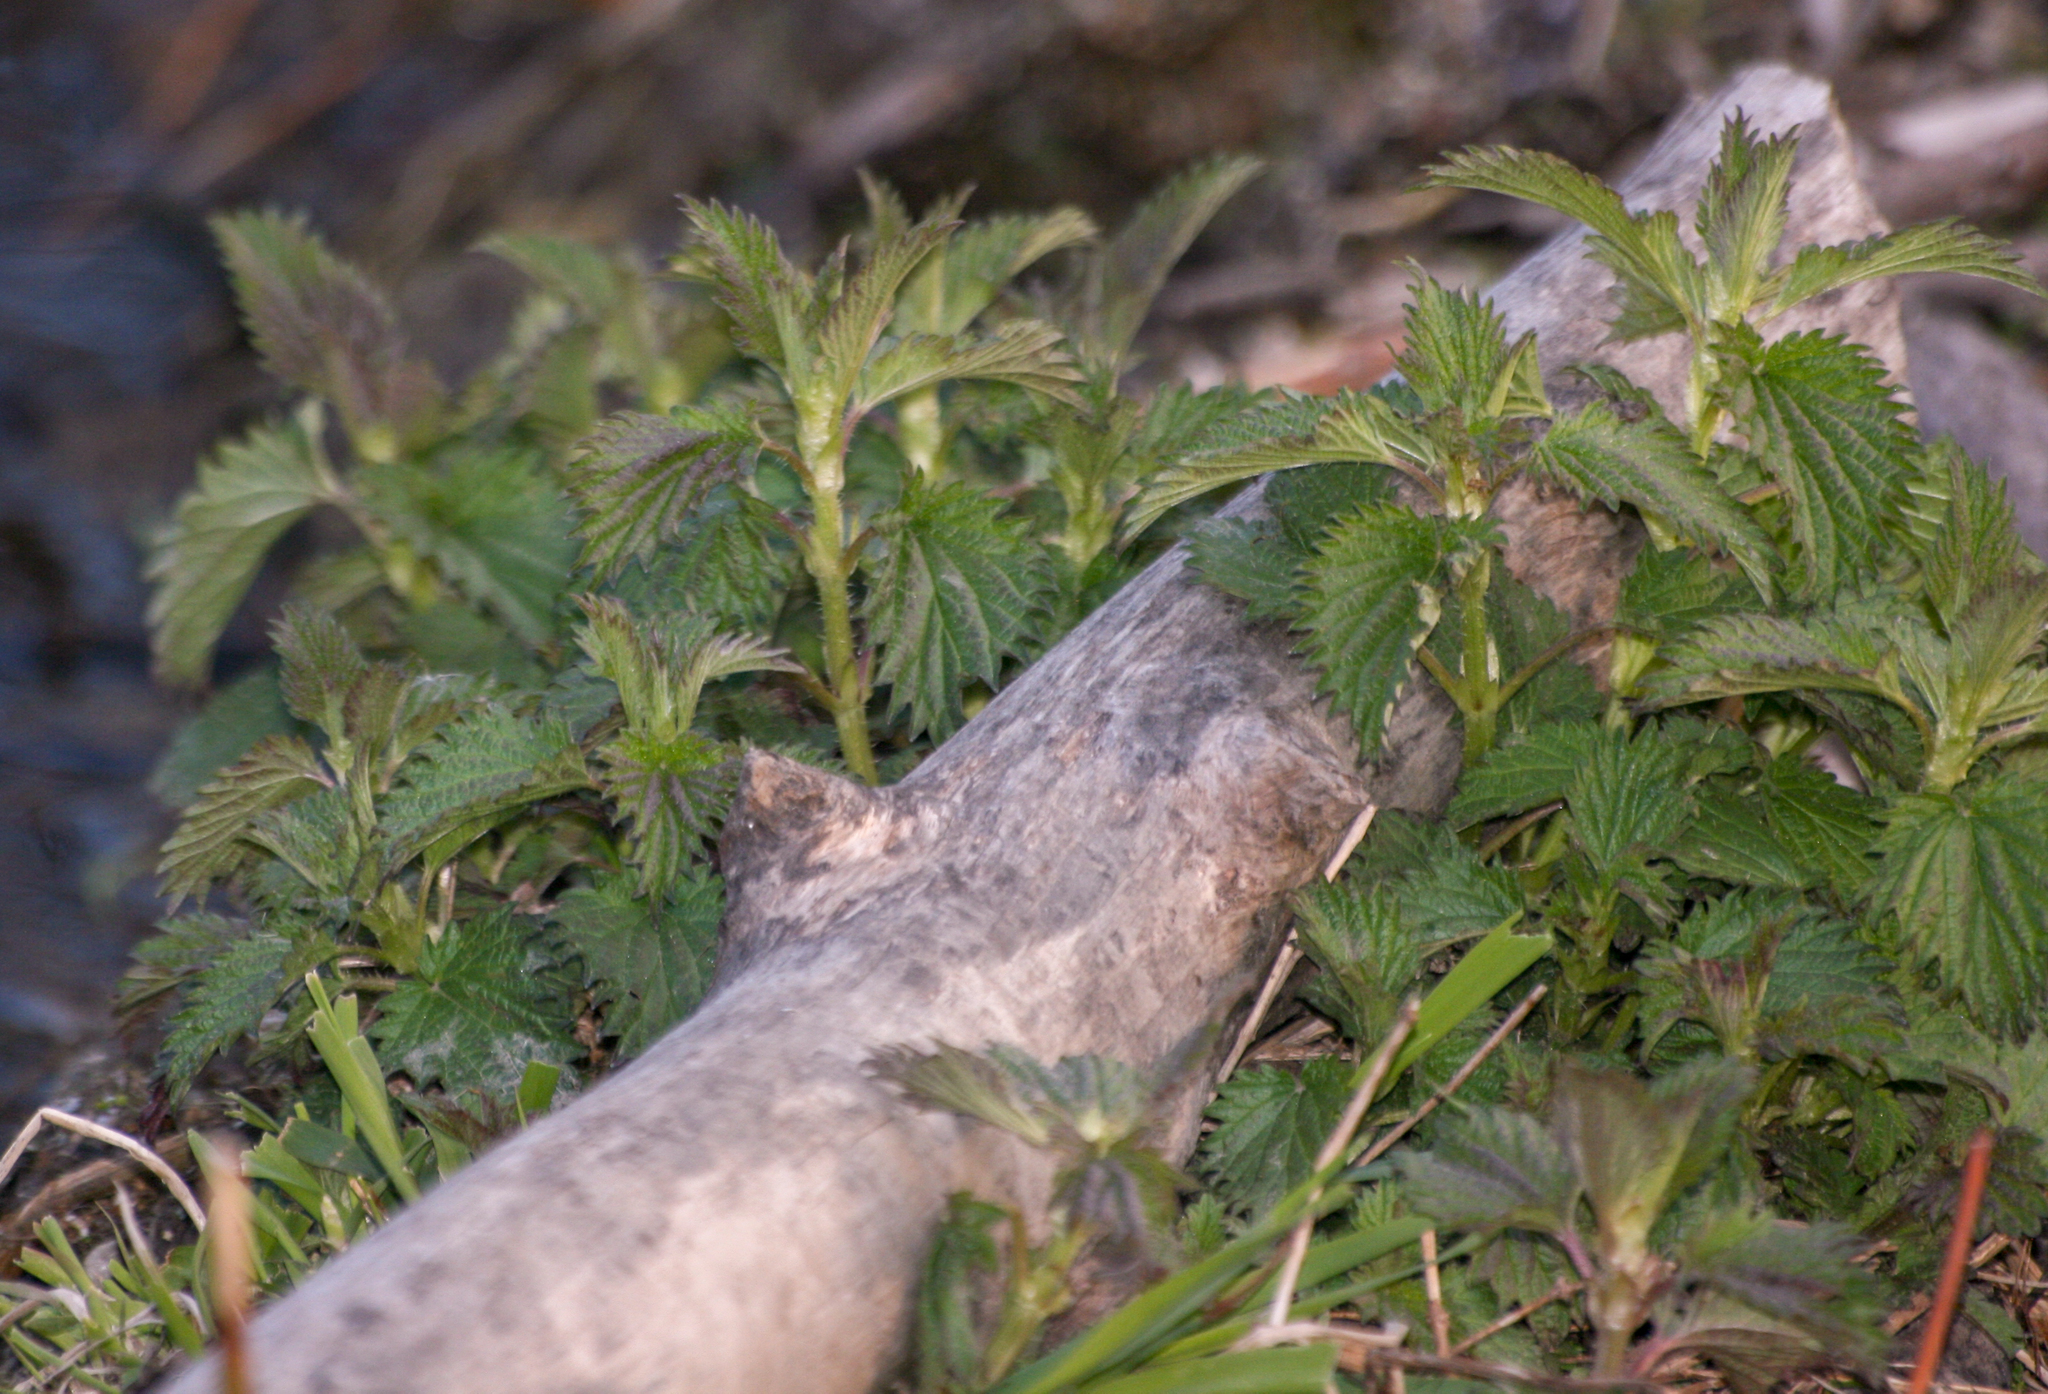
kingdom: Plantae
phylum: Tracheophyta
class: Magnoliopsida
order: Rosales
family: Urticaceae
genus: Urtica
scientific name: Urtica dioica
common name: Common nettle
